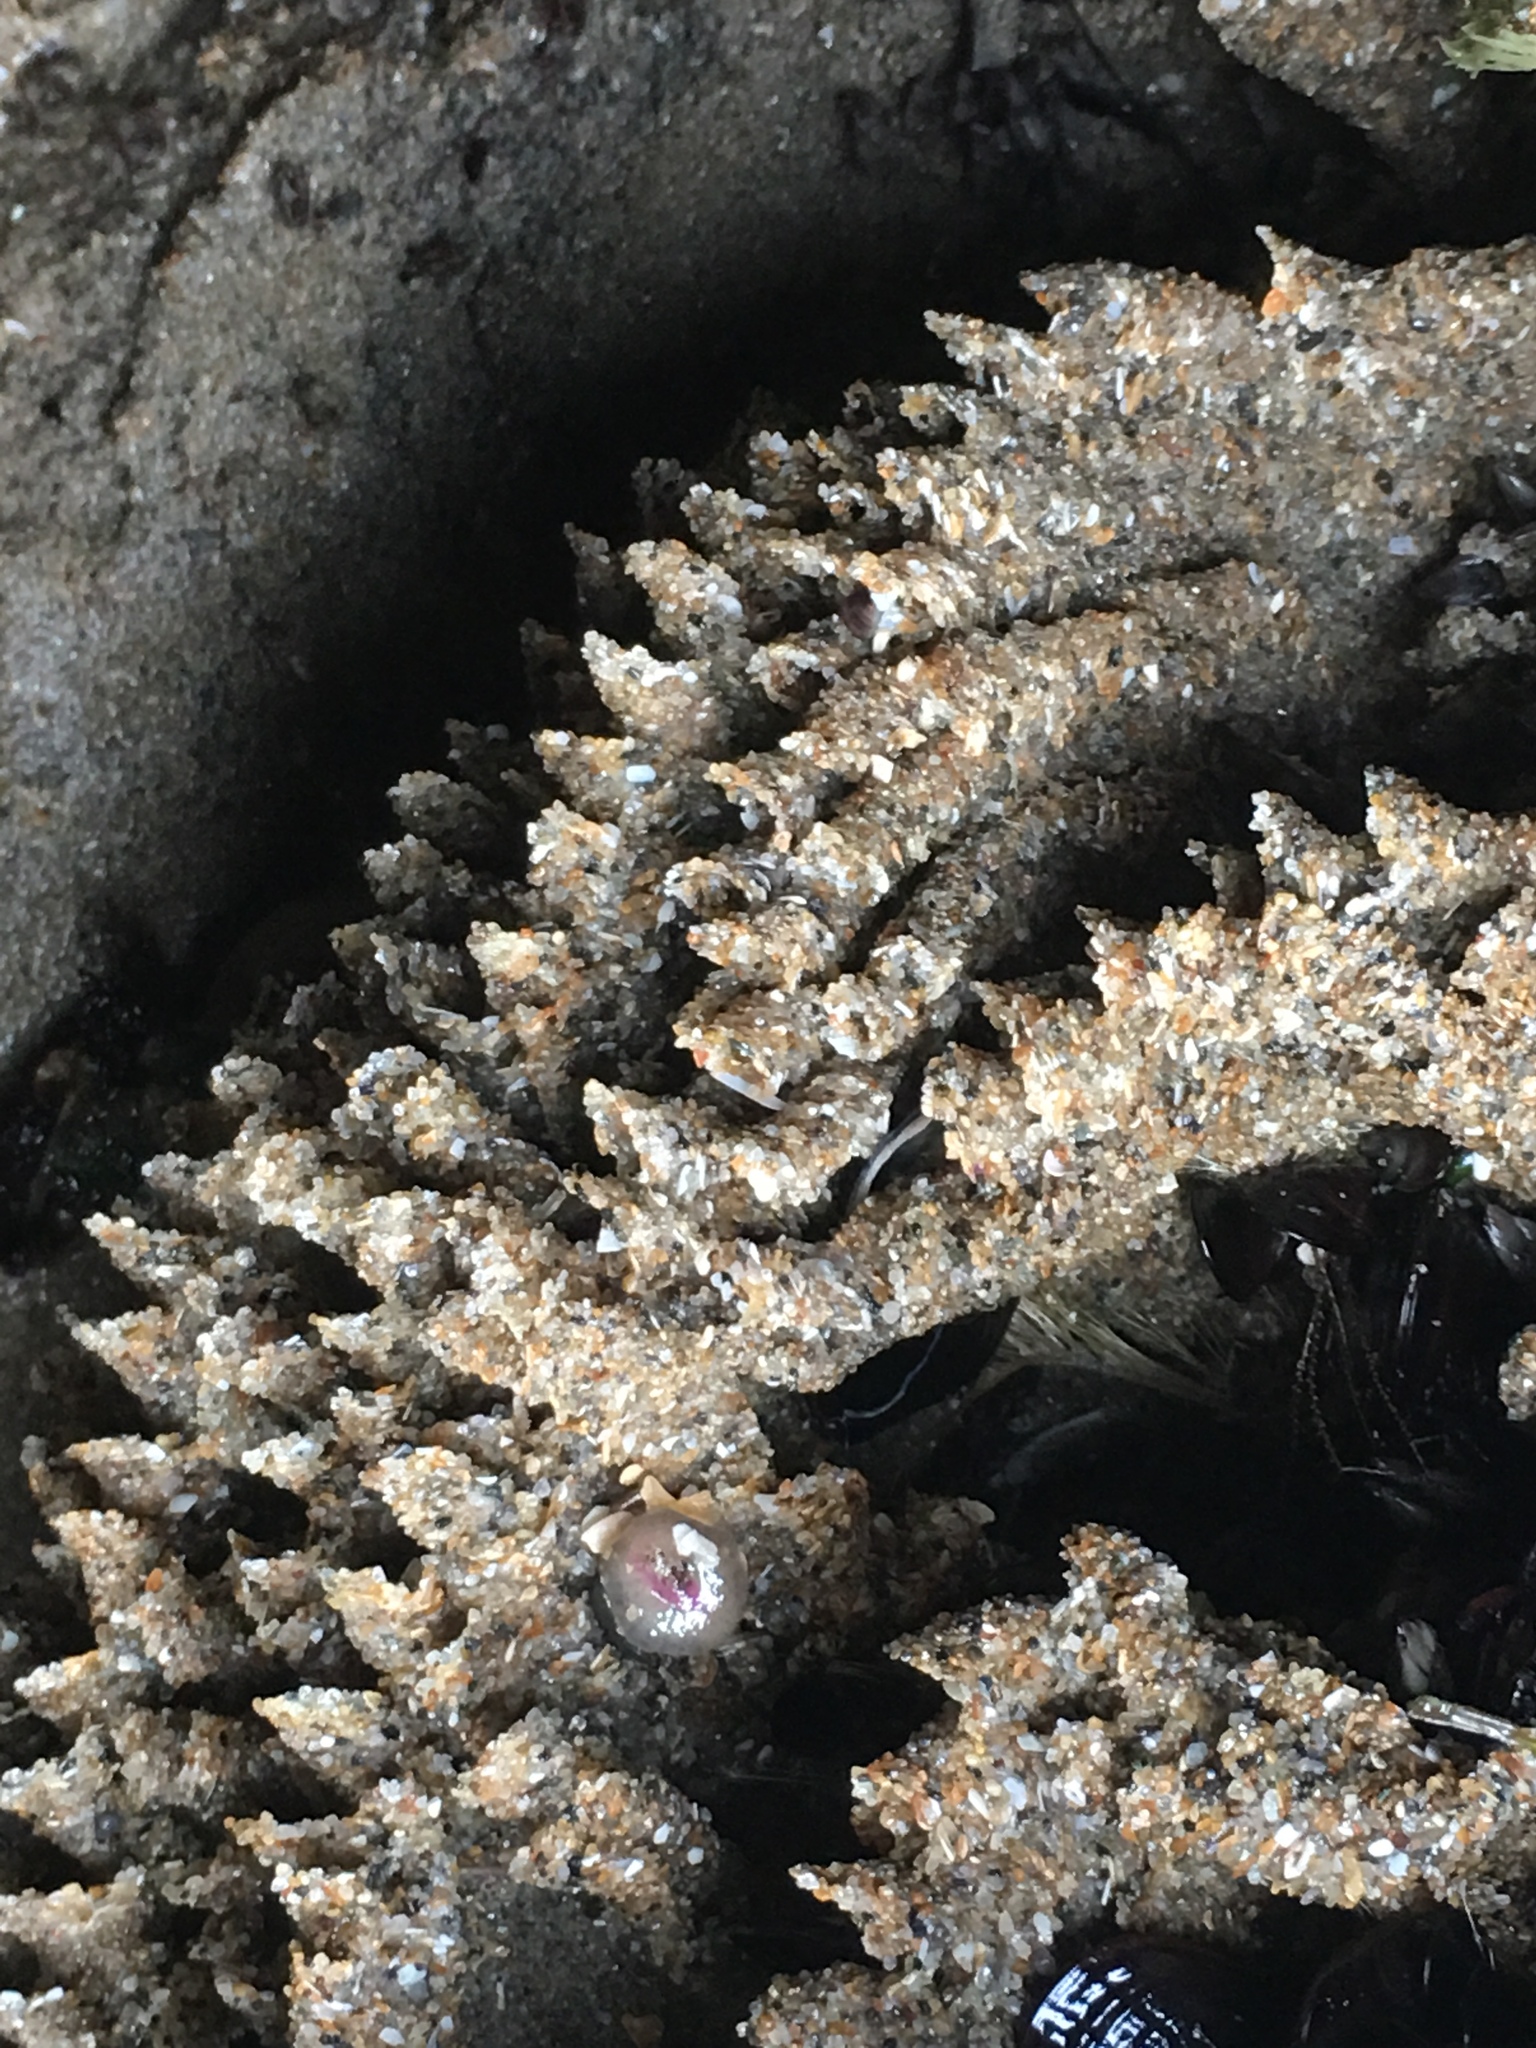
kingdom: Animalia
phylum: Annelida
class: Polychaeta
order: Sabellida
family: Sabellariidae
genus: Phragmatopoma
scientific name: Phragmatopoma californica
